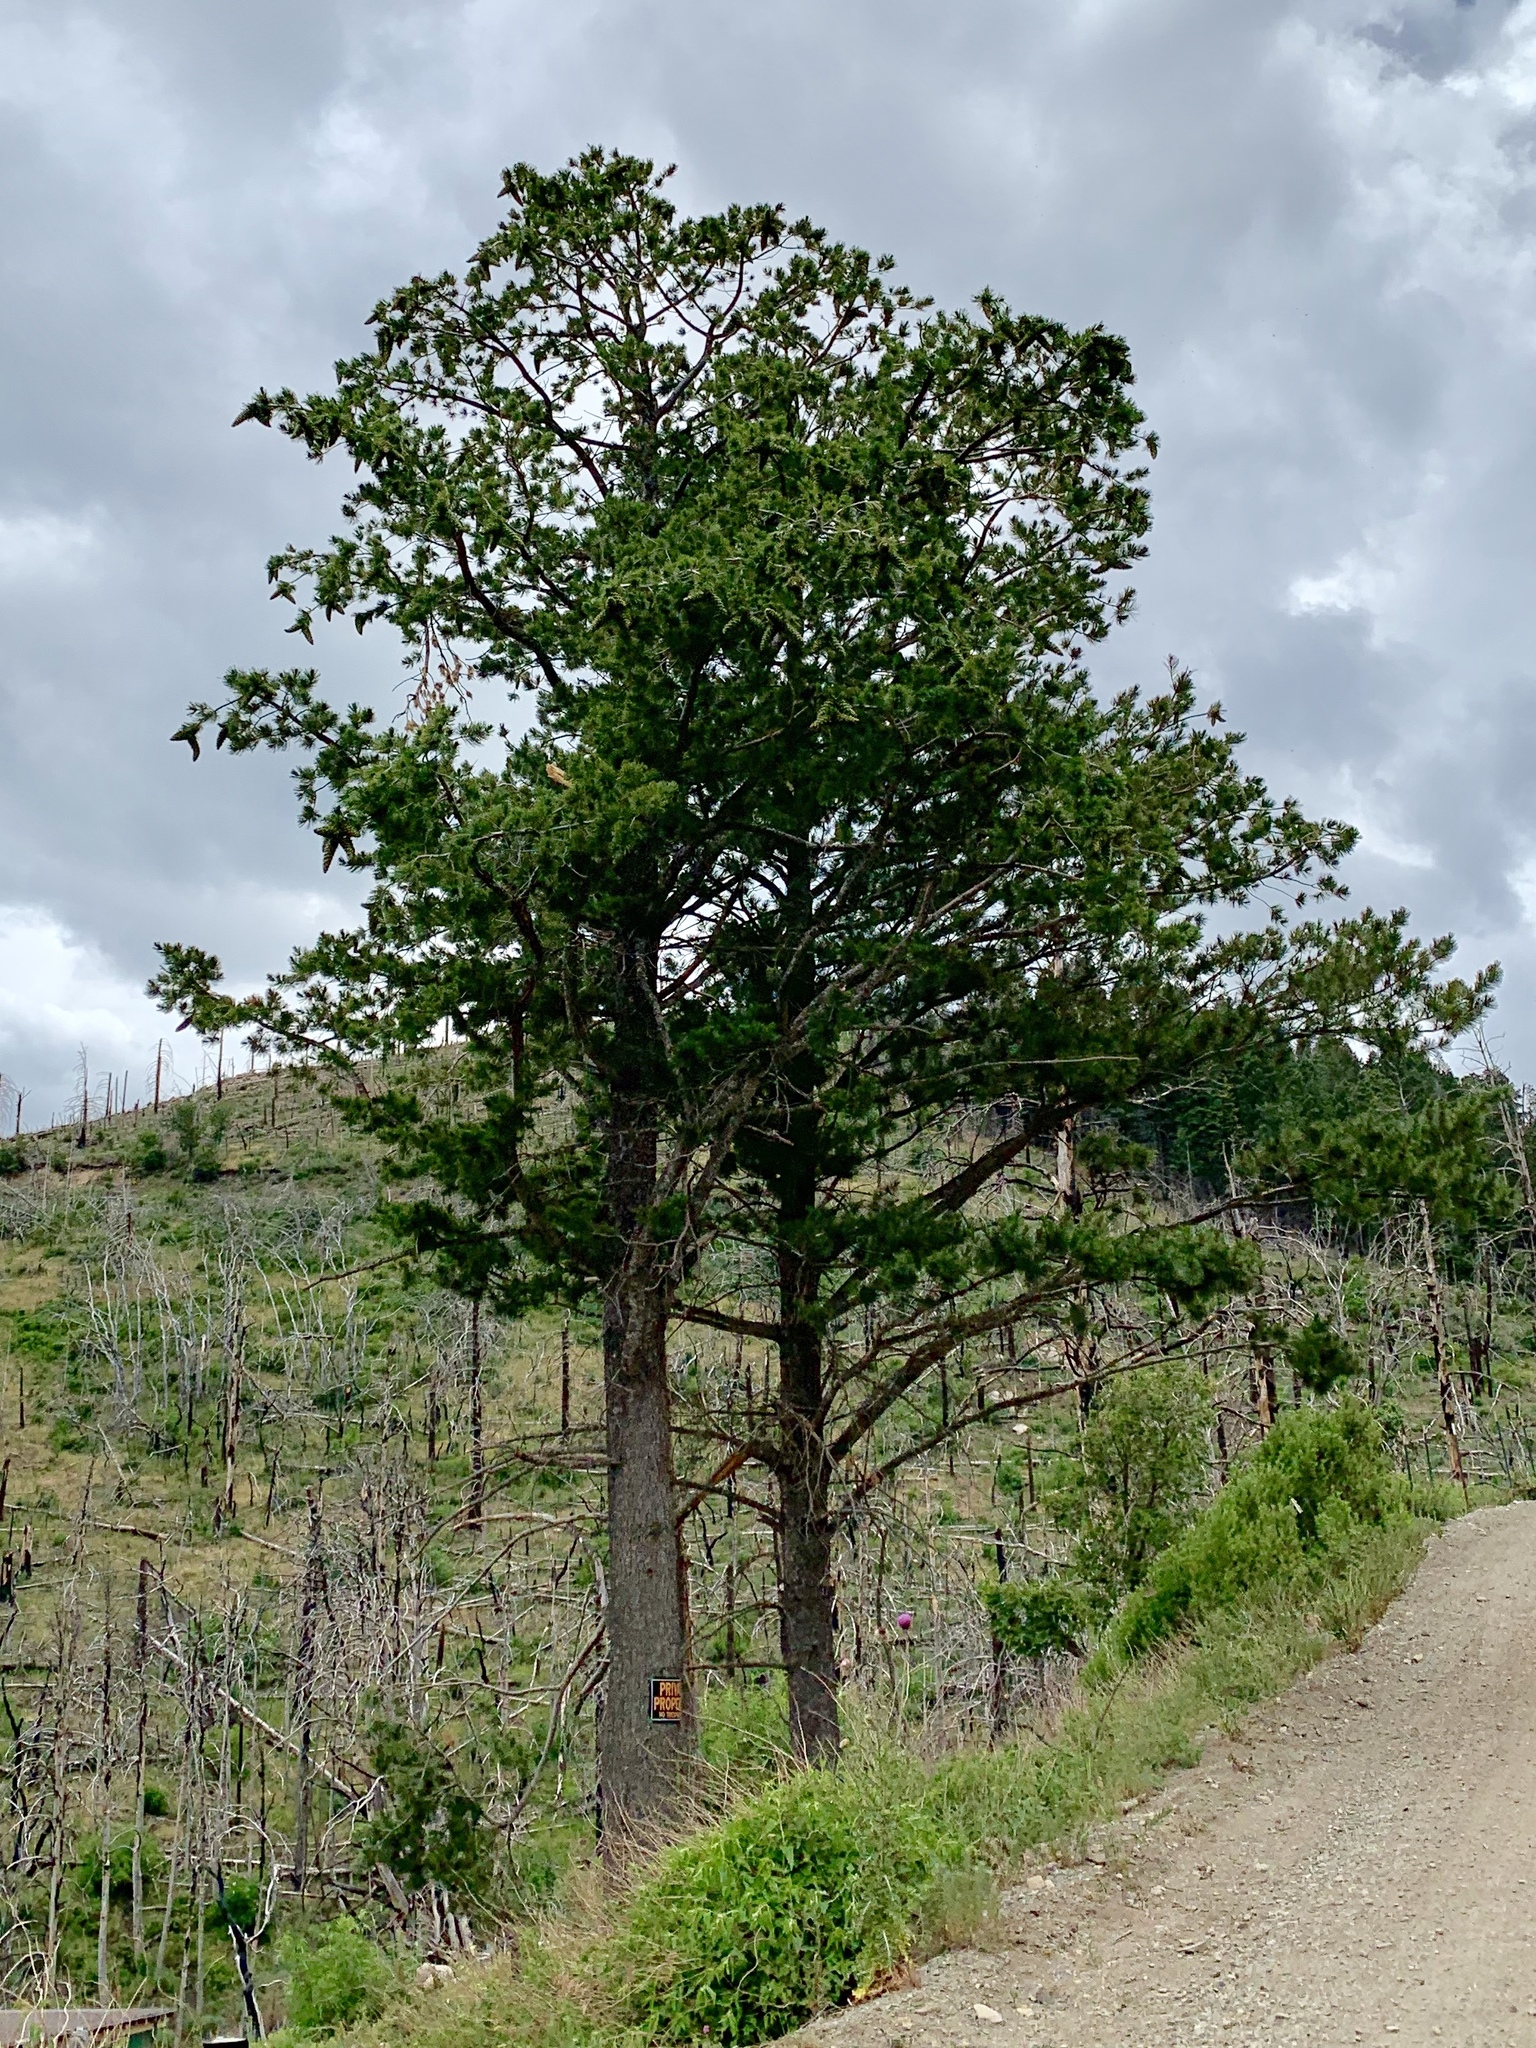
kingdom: Plantae
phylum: Tracheophyta
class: Pinopsida
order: Pinales
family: Pinaceae
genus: Pinus
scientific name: Pinus strobiformis
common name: Southwestern white pine
